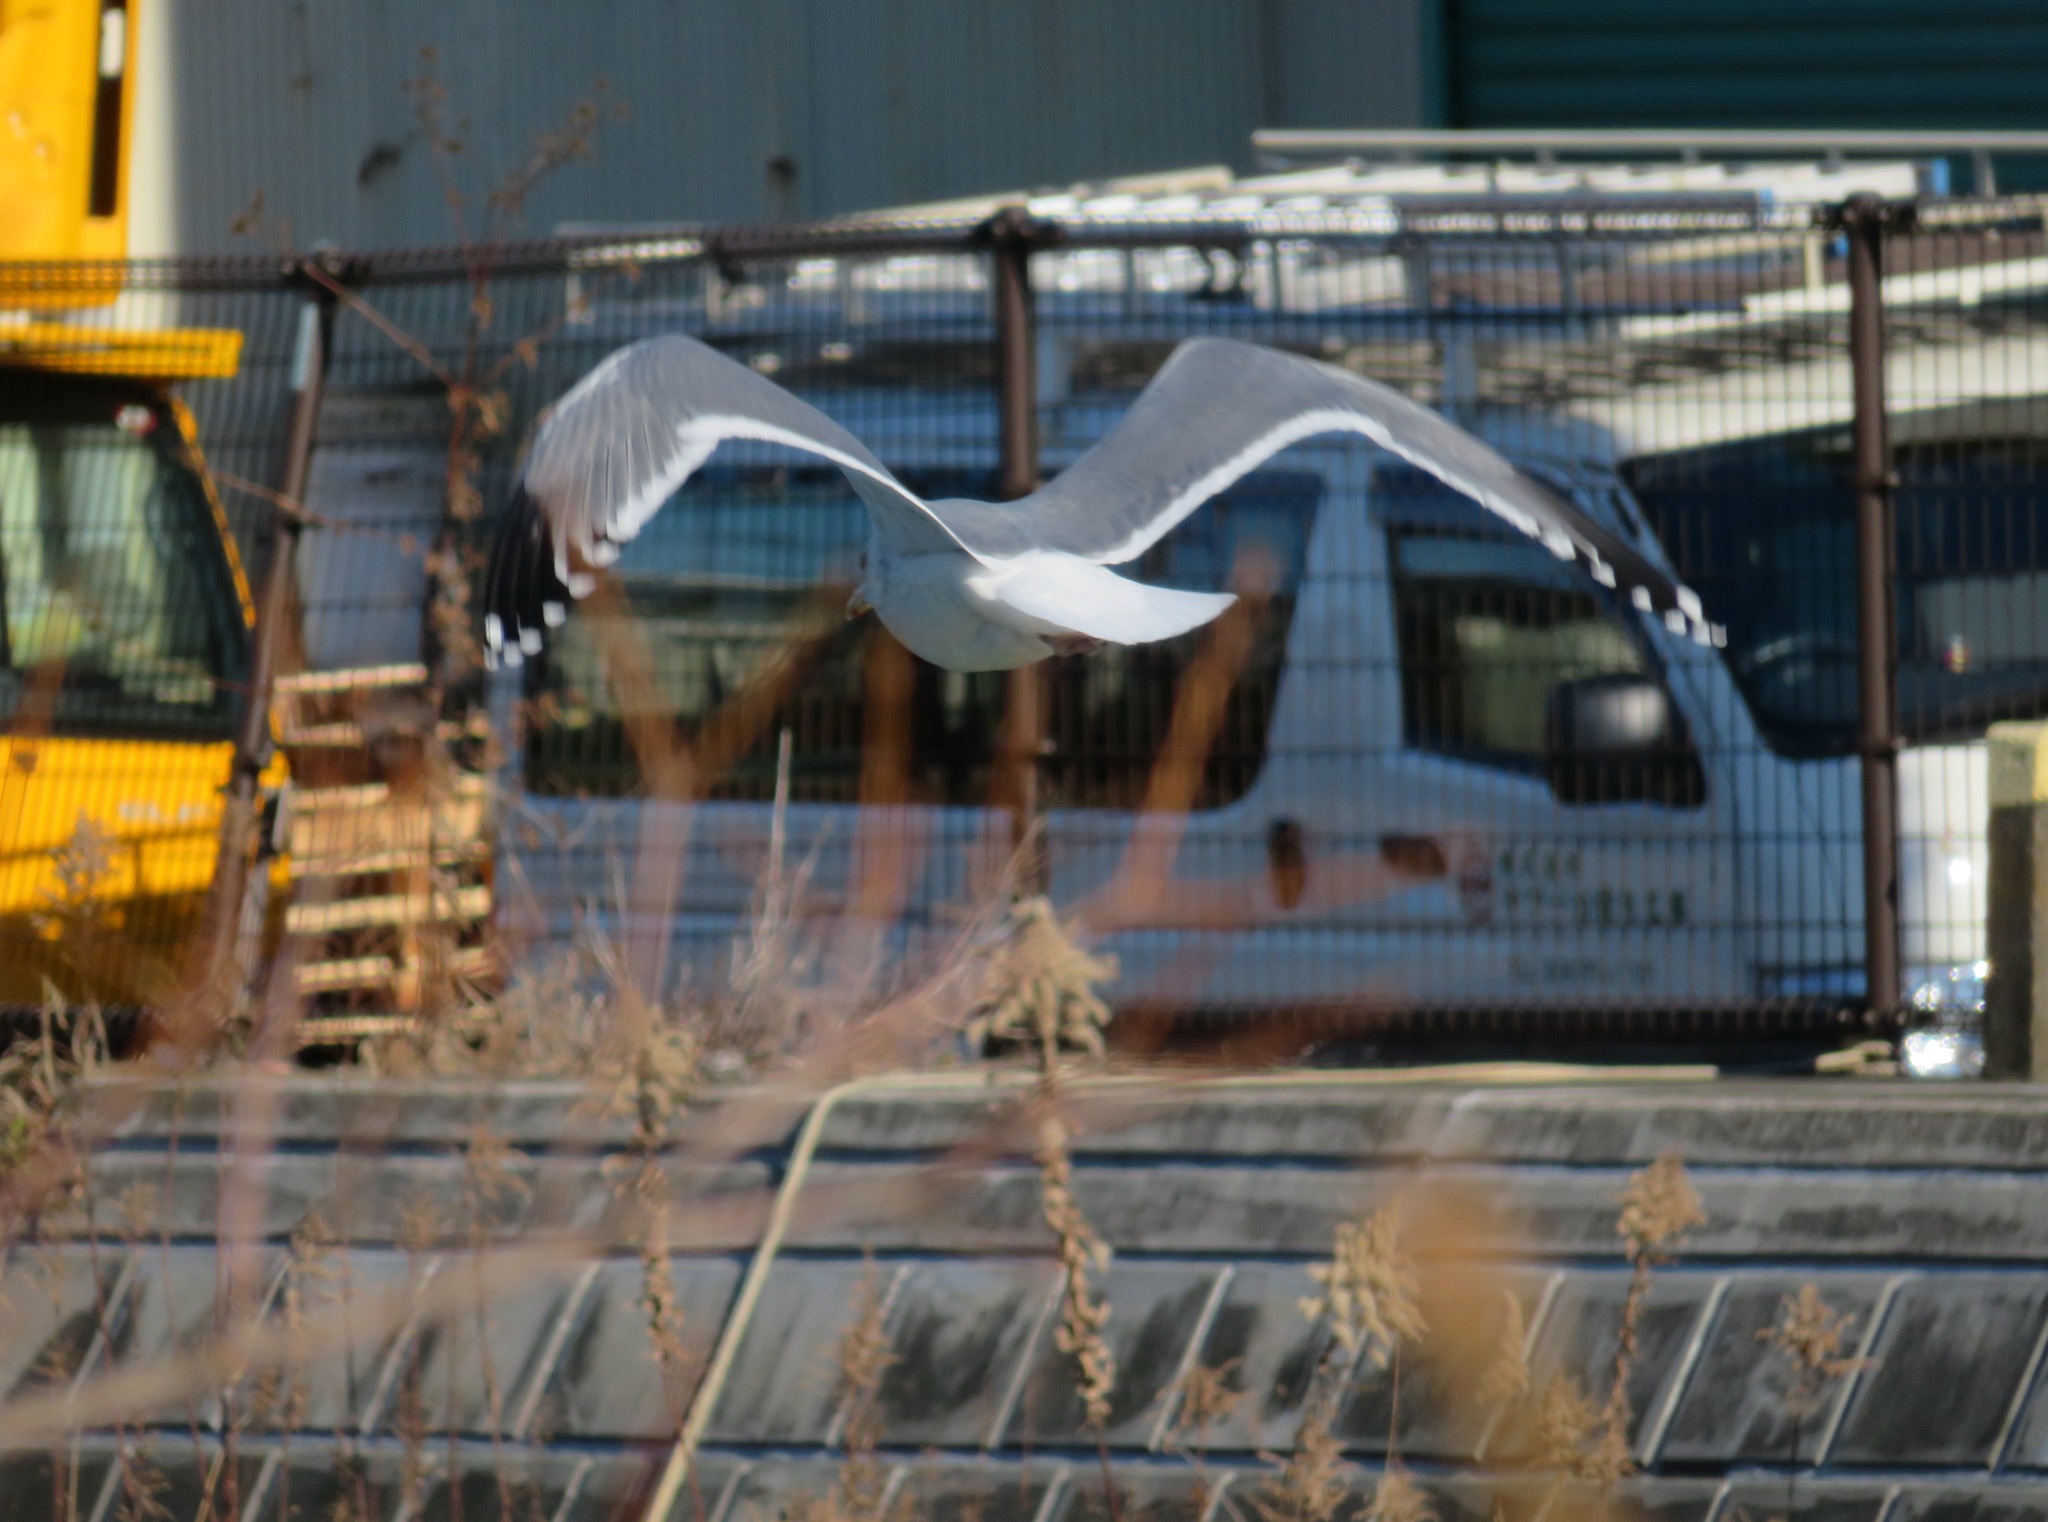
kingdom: Animalia
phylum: Chordata
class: Aves
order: Charadriiformes
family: Laridae
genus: Larus
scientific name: Larus vegae
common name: Vega gull
